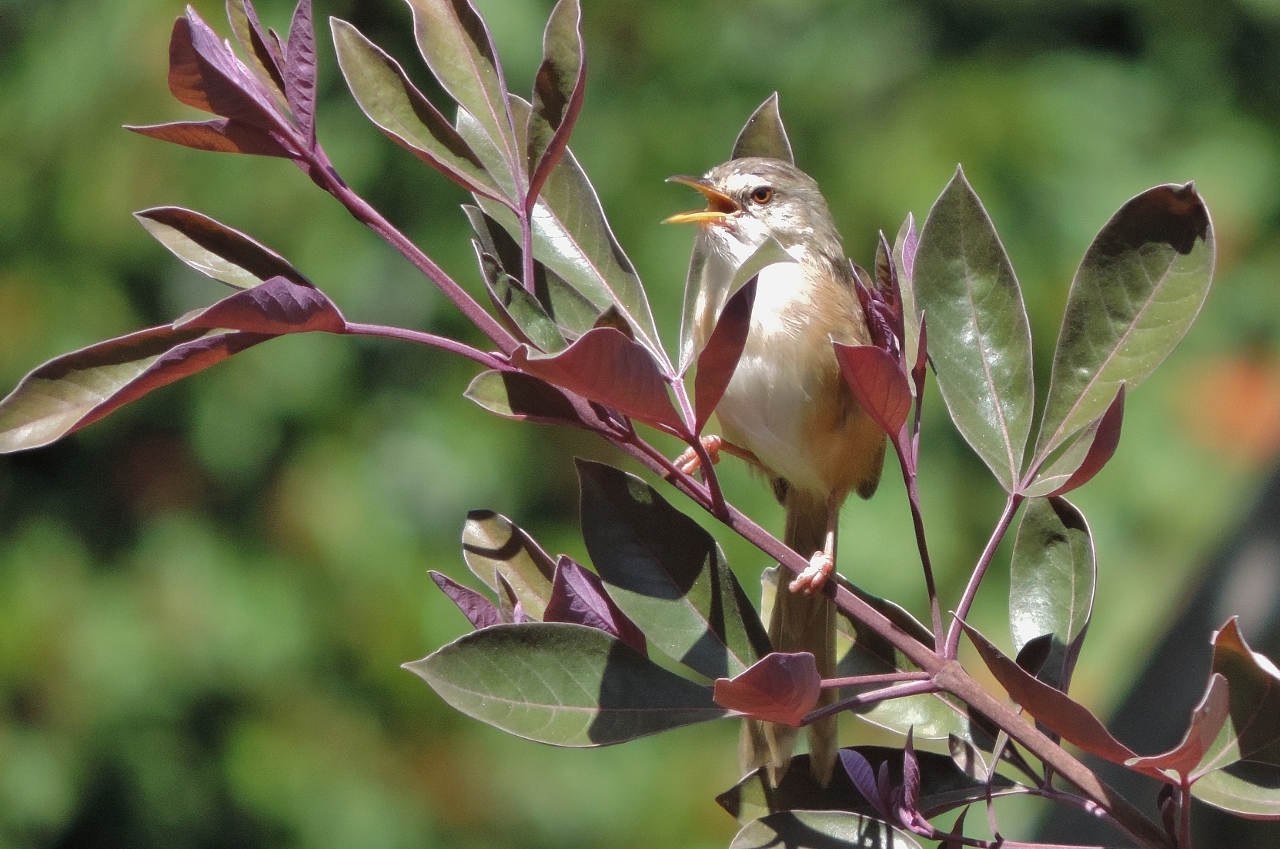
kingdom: Animalia
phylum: Chordata
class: Aves
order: Passeriformes
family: Cisticolidae
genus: Prinia
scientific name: Prinia subflava
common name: Tawny-flanked prinia
